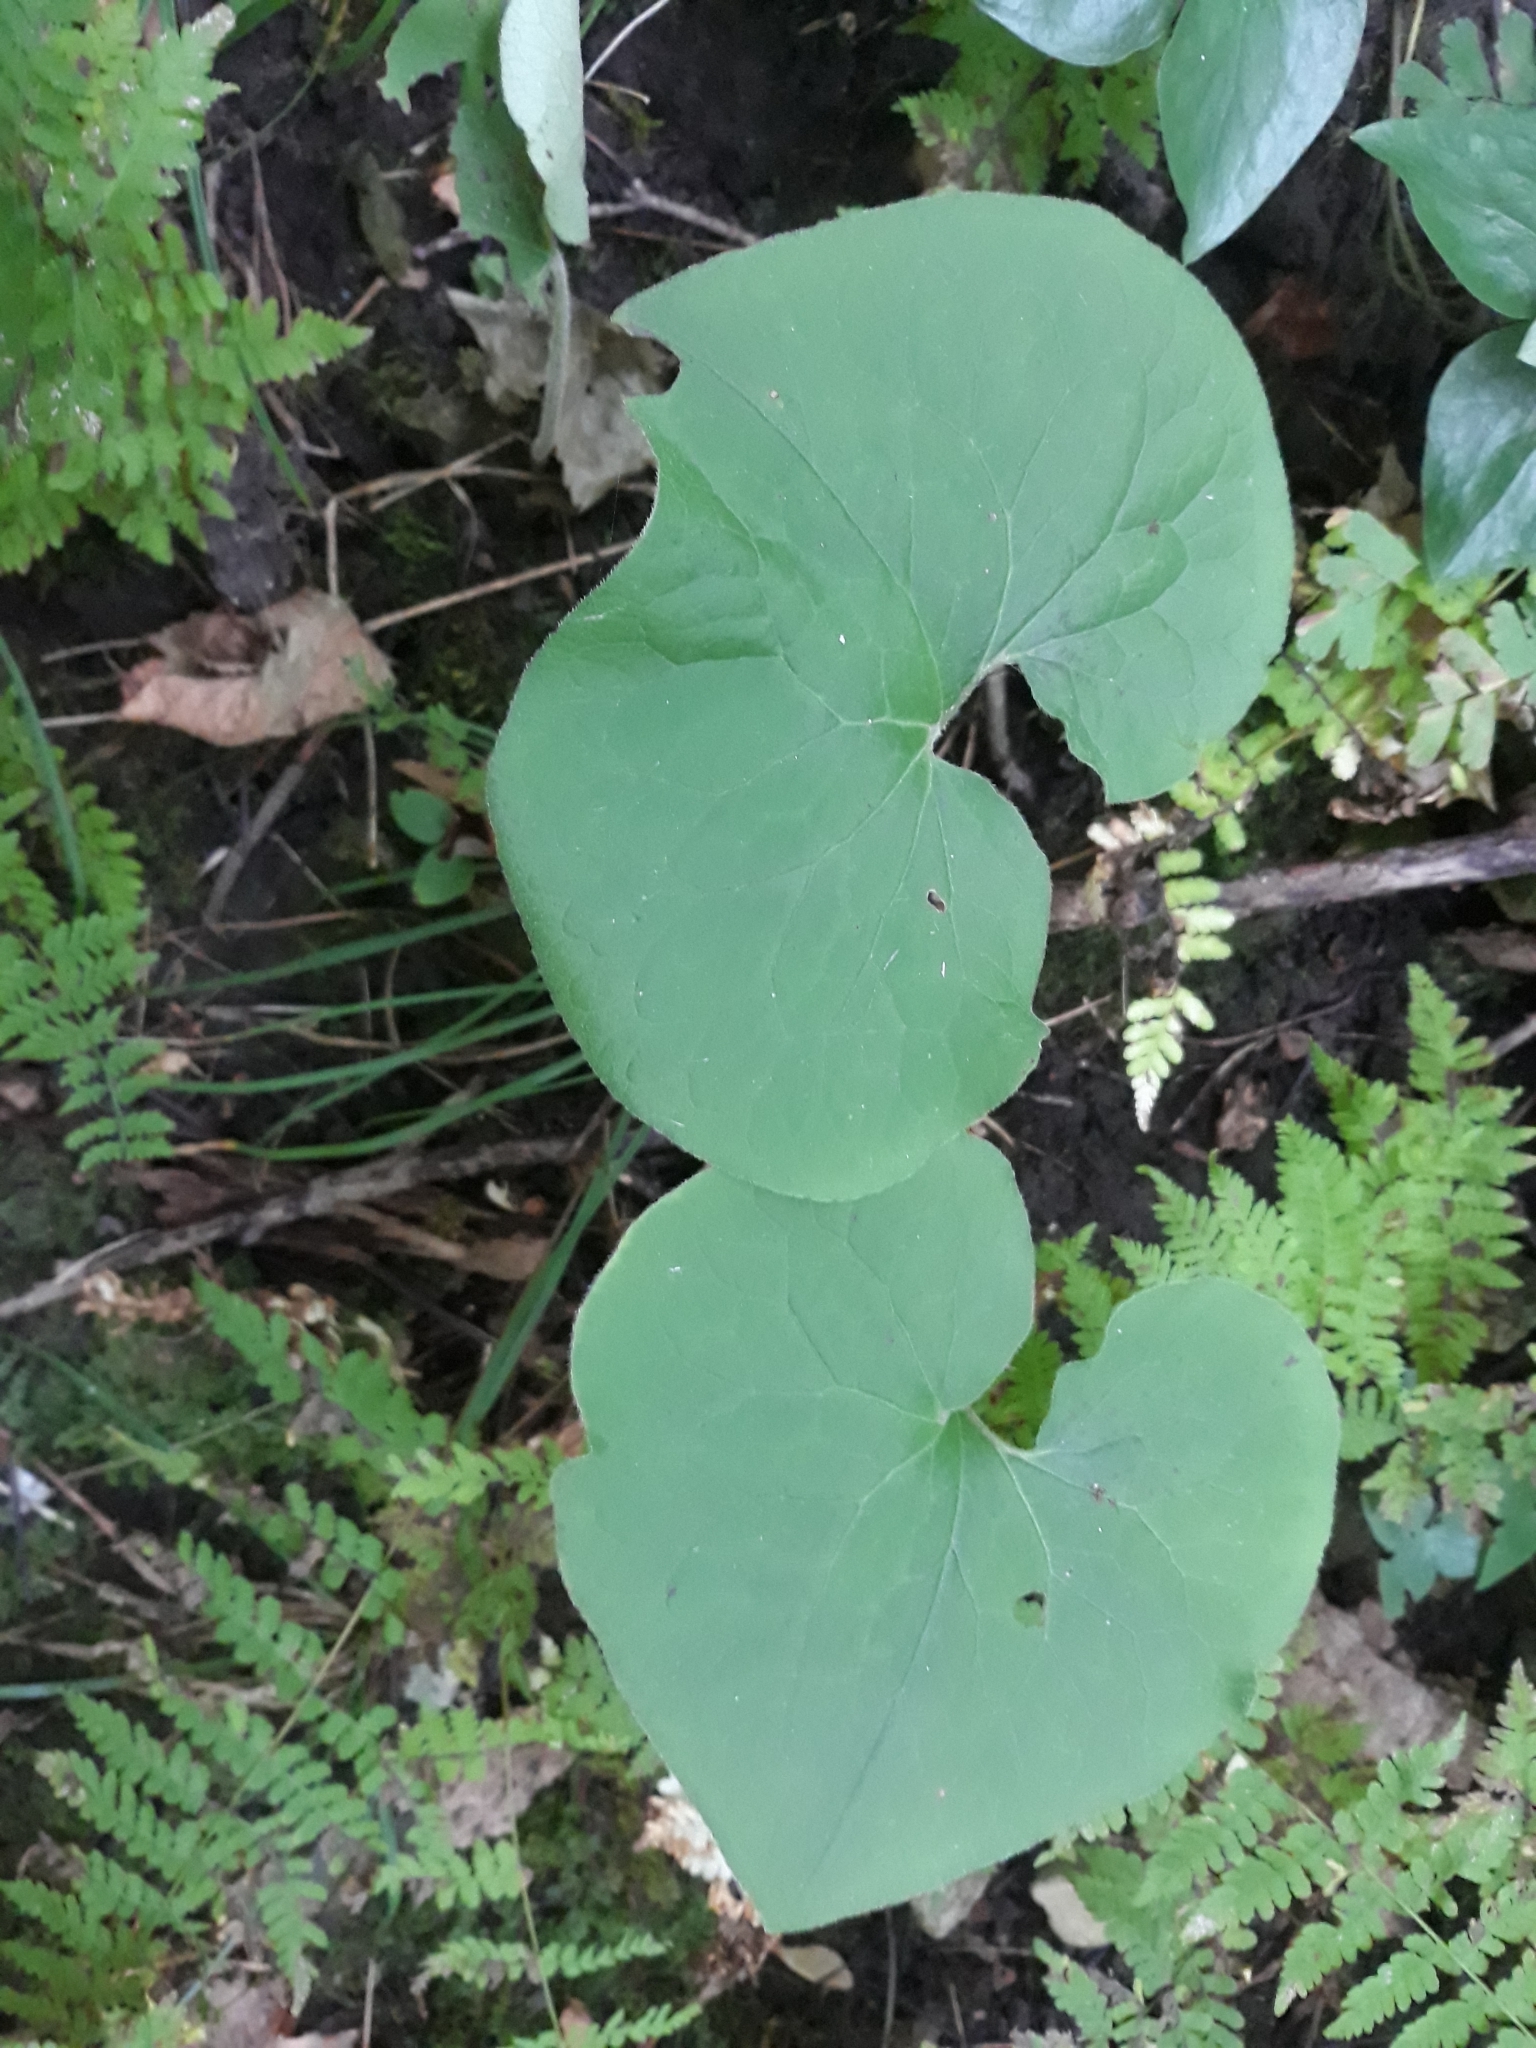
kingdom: Plantae
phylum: Tracheophyta
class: Magnoliopsida
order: Piperales
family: Aristolochiaceae
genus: Asarum
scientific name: Asarum canadense
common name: Wild ginger
